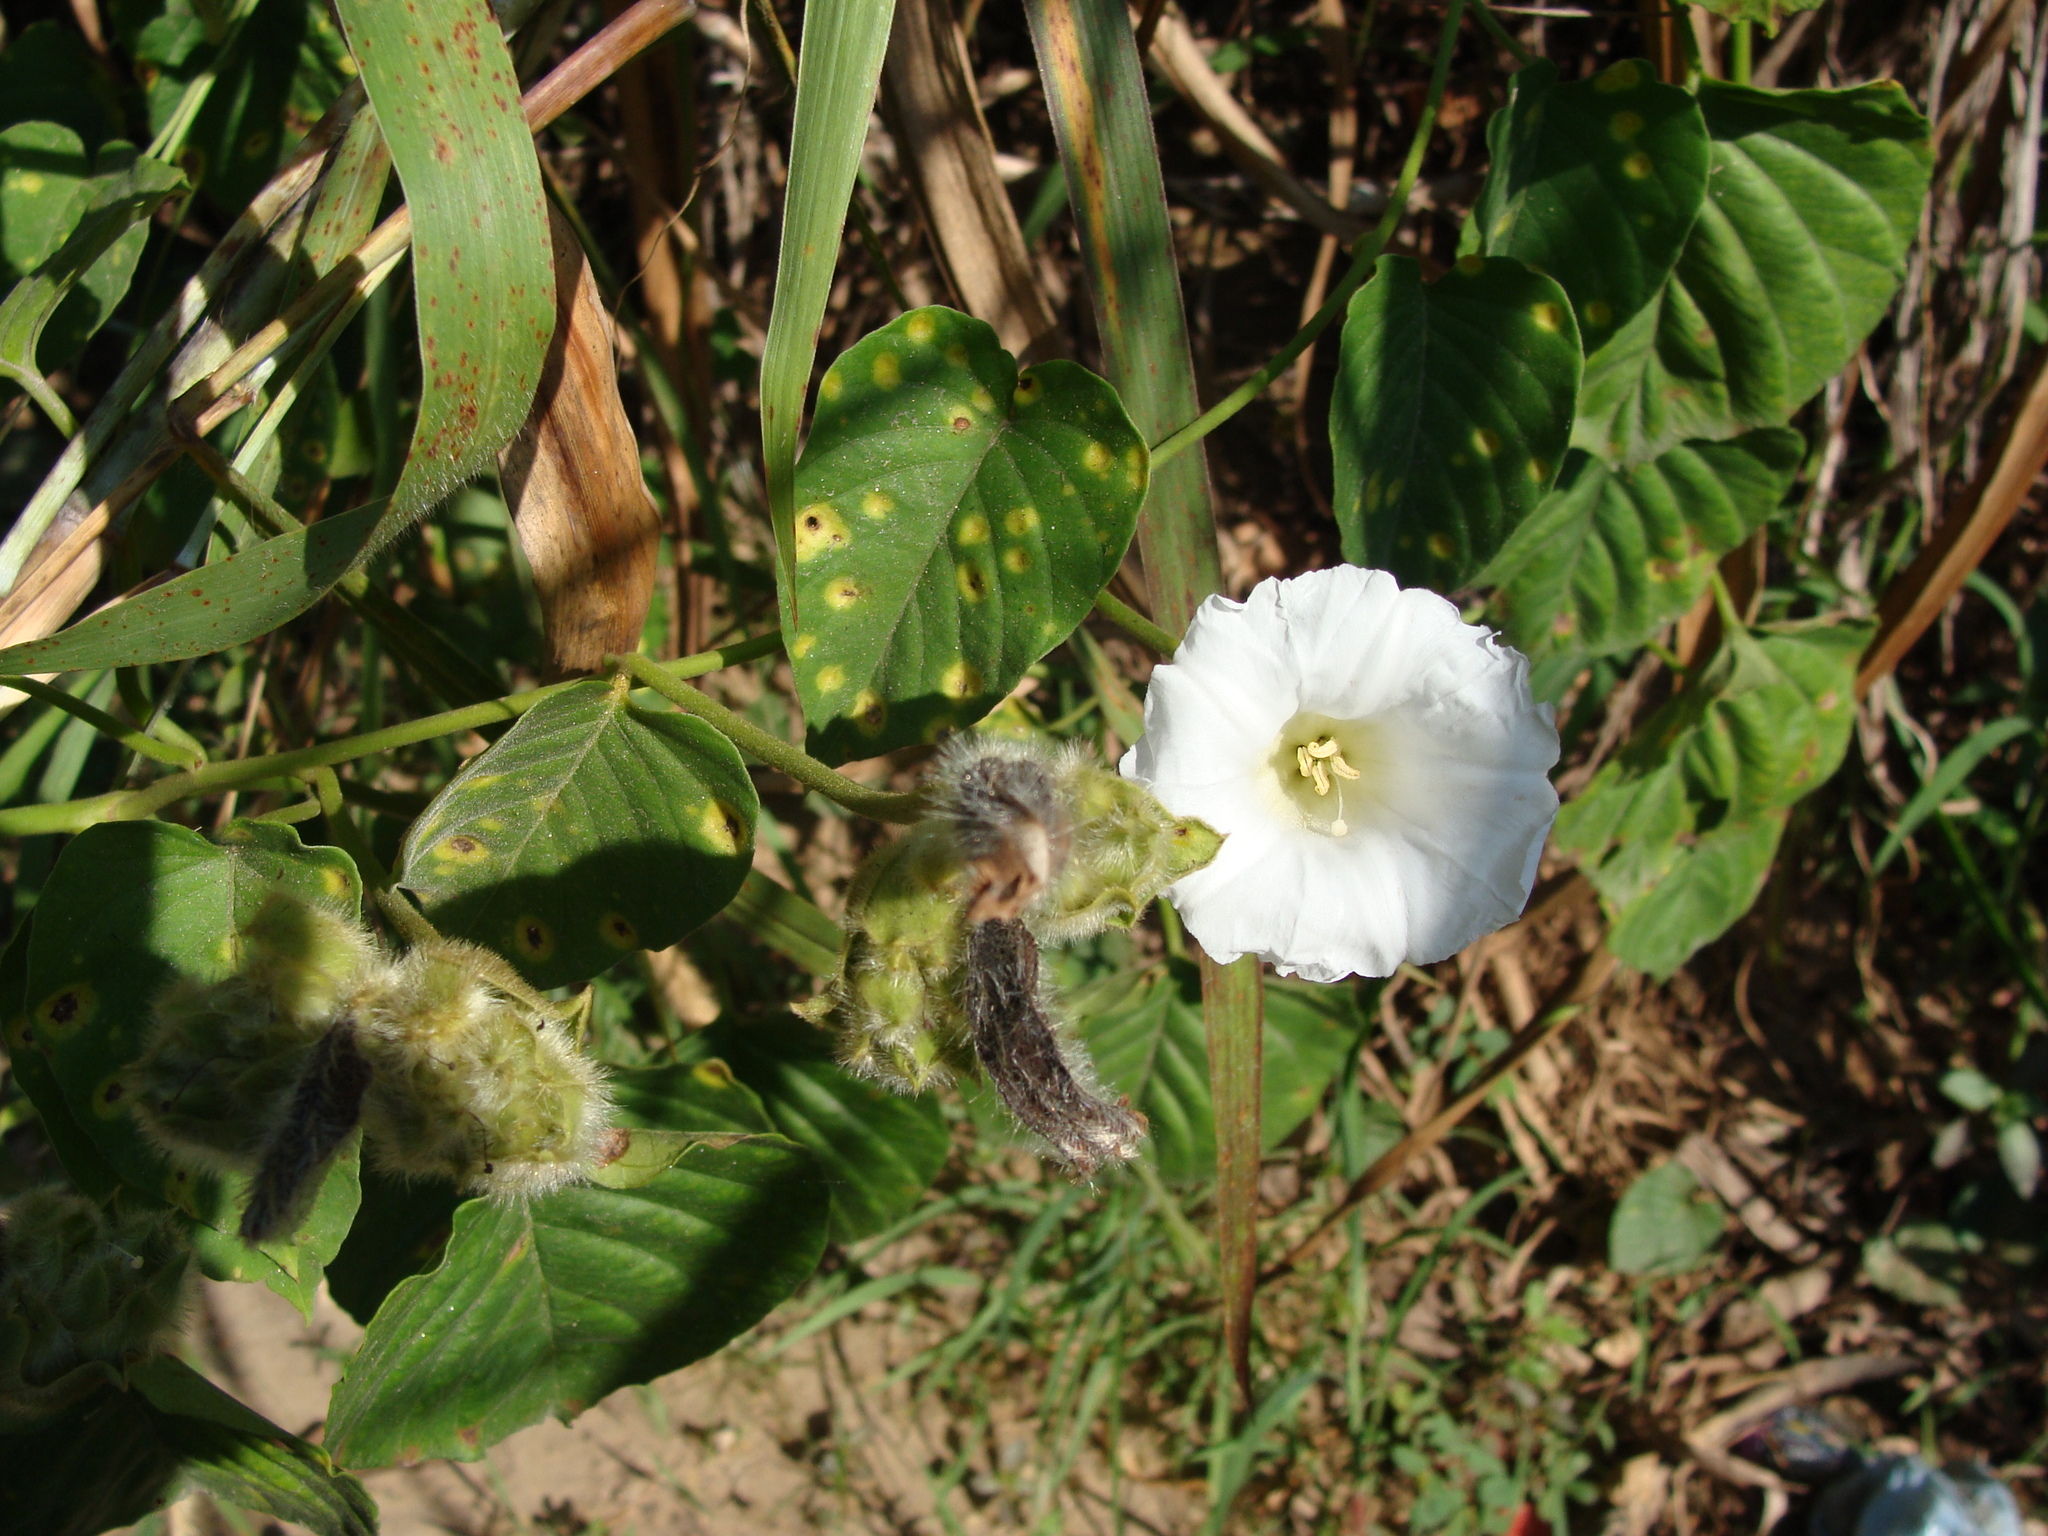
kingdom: Plantae
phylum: Tracheophyta
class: Magnoliopsida
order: Solanales
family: Convolvulaceae
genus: Odonellia
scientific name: Odonellia hirtiflora
